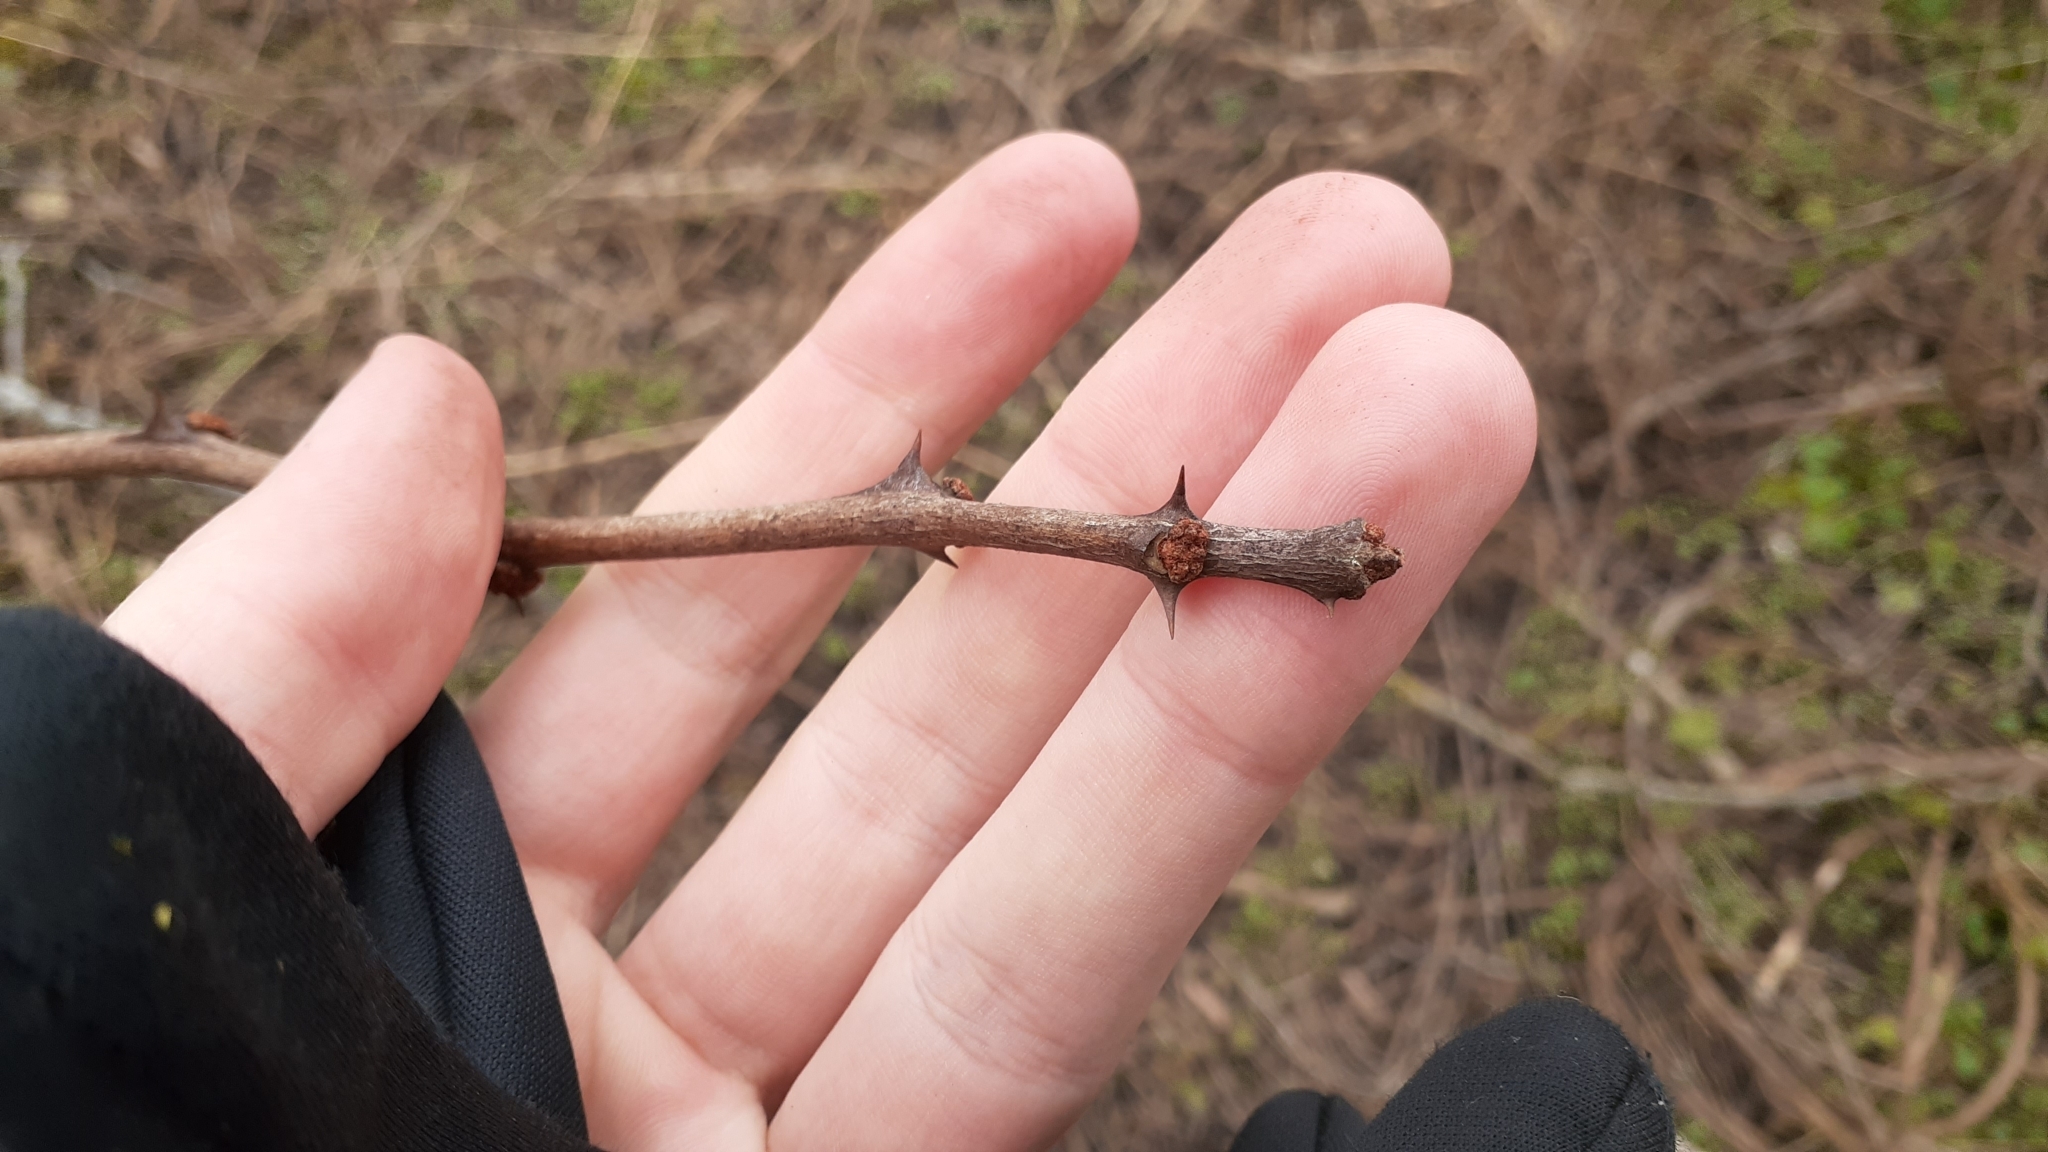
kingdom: Plantae
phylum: Tracheophyta
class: Magnoliopsida
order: Sapindales
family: Rutaceae
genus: Zanthoxylum
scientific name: Zanthoxylum americanum
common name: Northern prickly-ash
